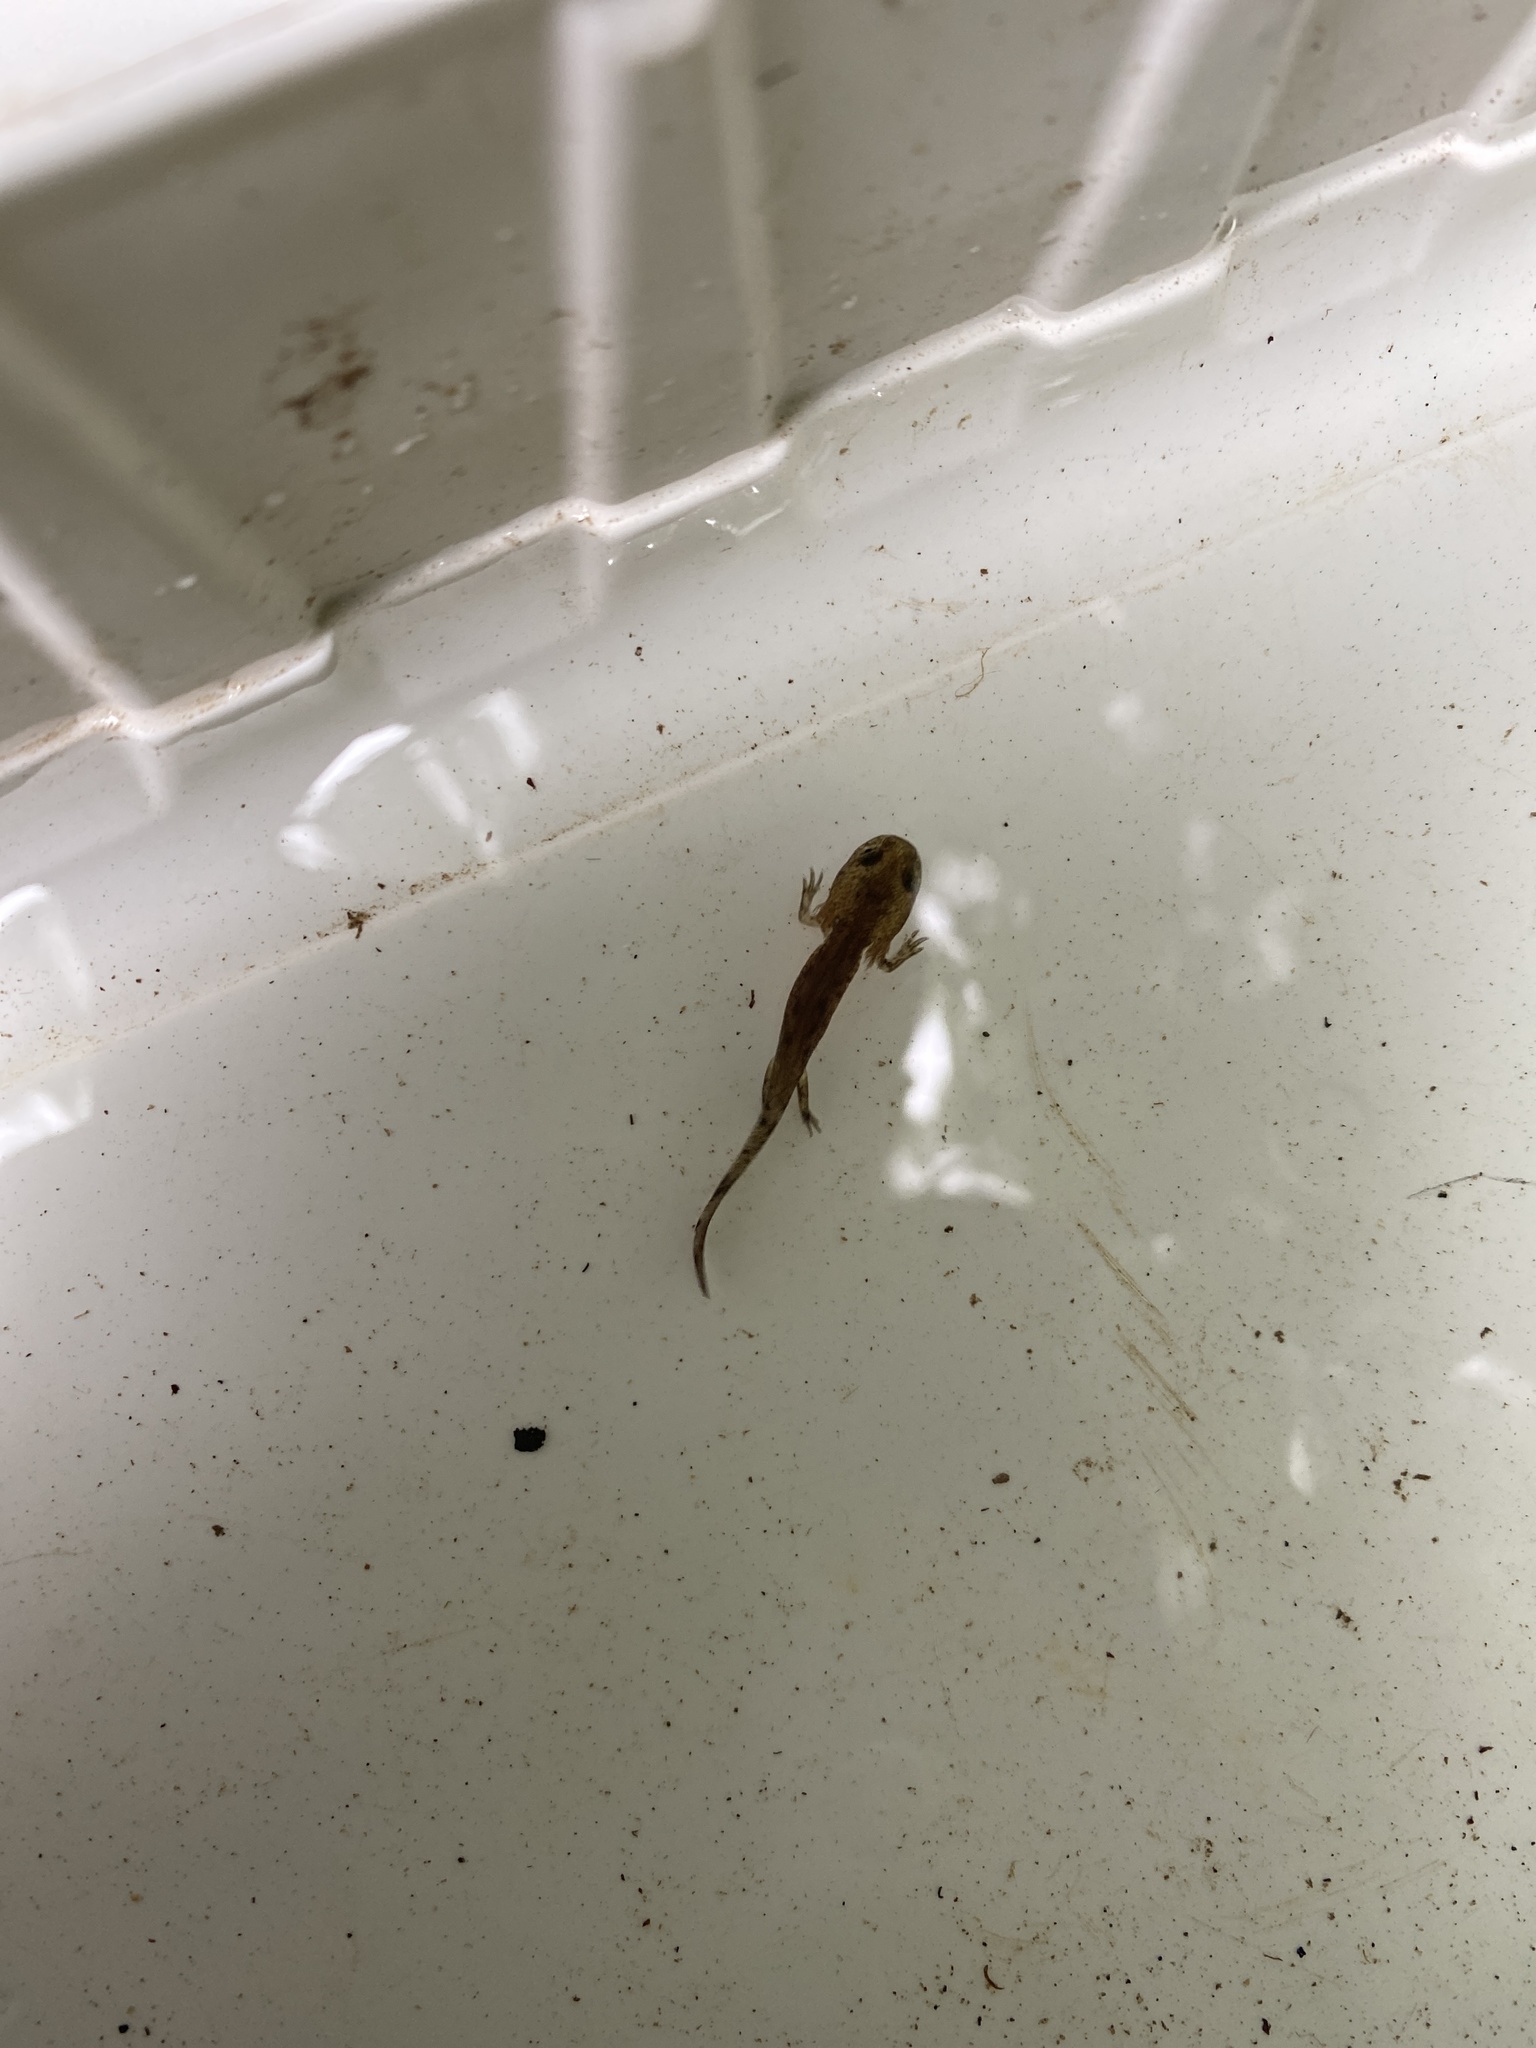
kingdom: Animalia
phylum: Chordata
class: Amphibia
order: Caudata
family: Salamandridae
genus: Salamandra
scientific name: Salamandra salamandra
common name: Fire salamander
